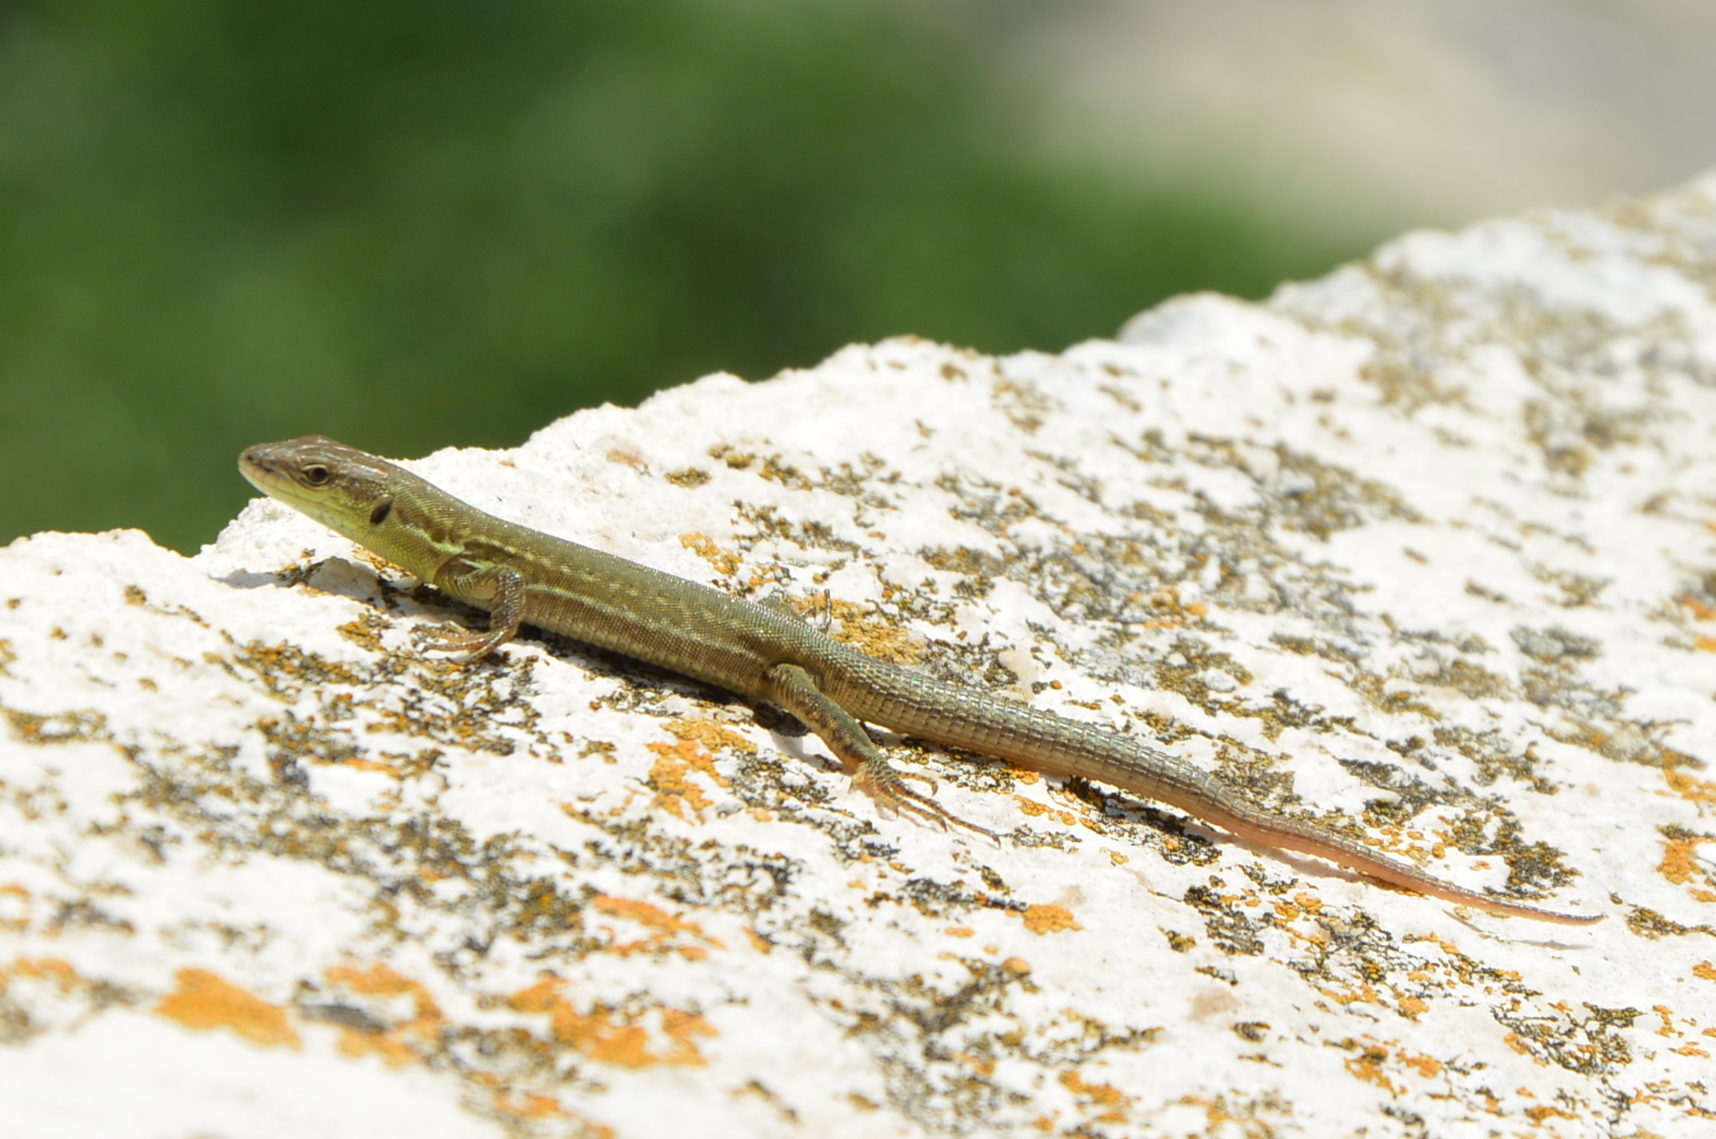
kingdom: Animalia
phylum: Chordata
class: Squamata
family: Lacertidae
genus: Podarcis
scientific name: Podarcis siculus
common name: Italian wall lizard
